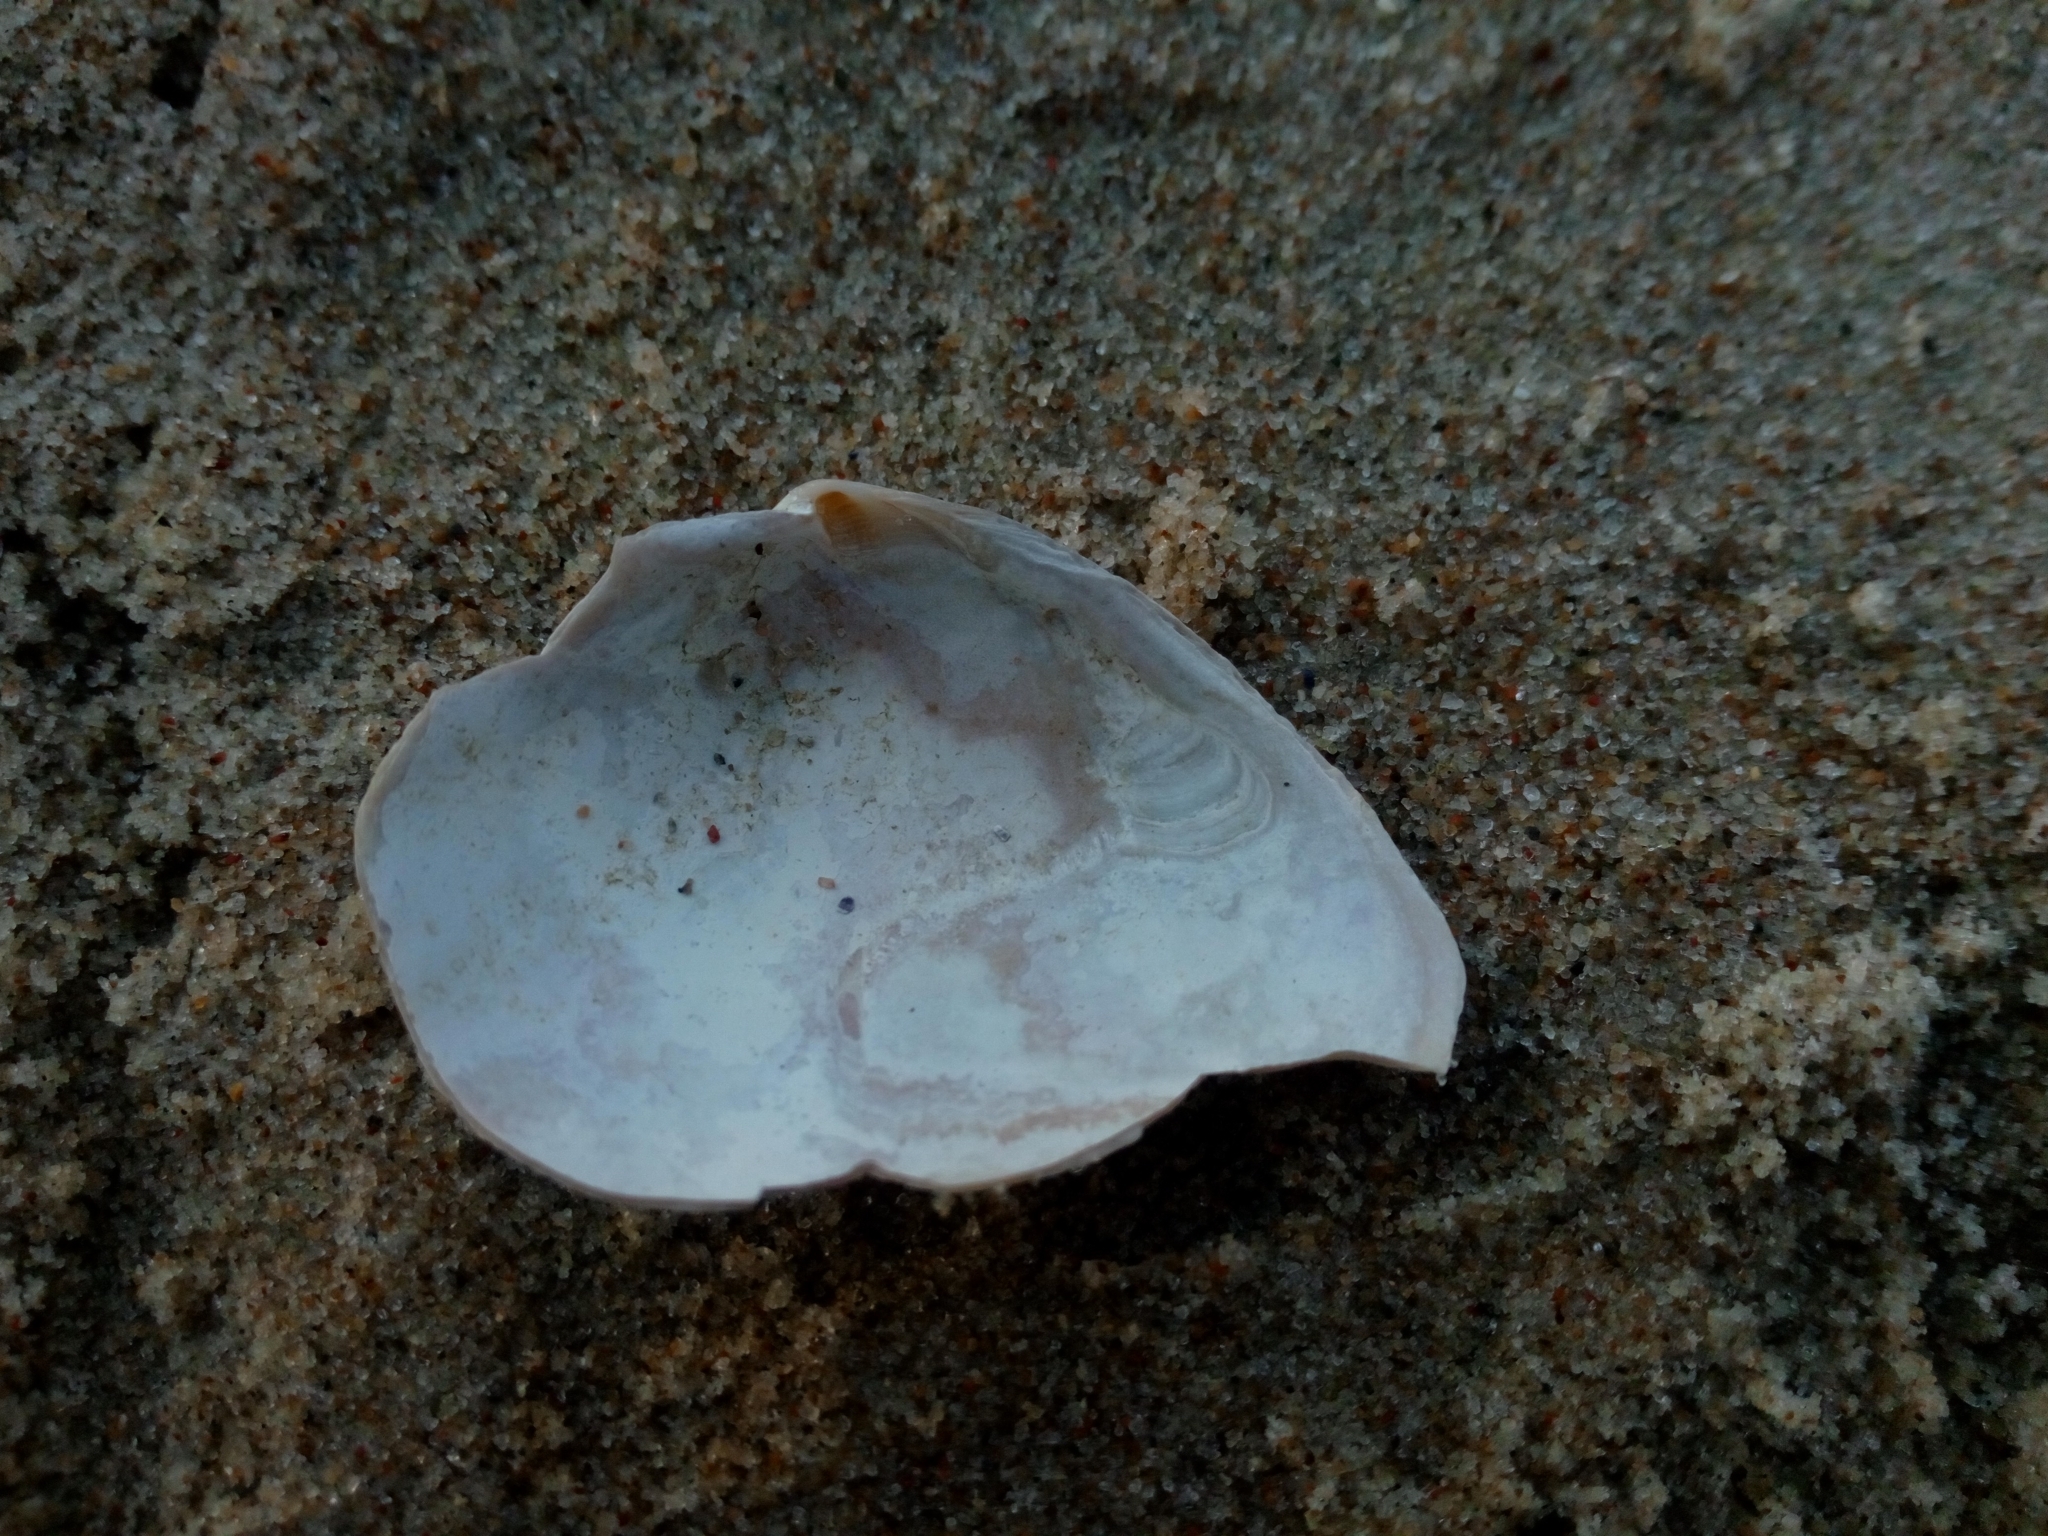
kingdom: Animalia
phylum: Mollusca
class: Bivalvia
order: Myida
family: Myidae
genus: Mya
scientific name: Mya arenaria
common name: Soft-shelled clam
